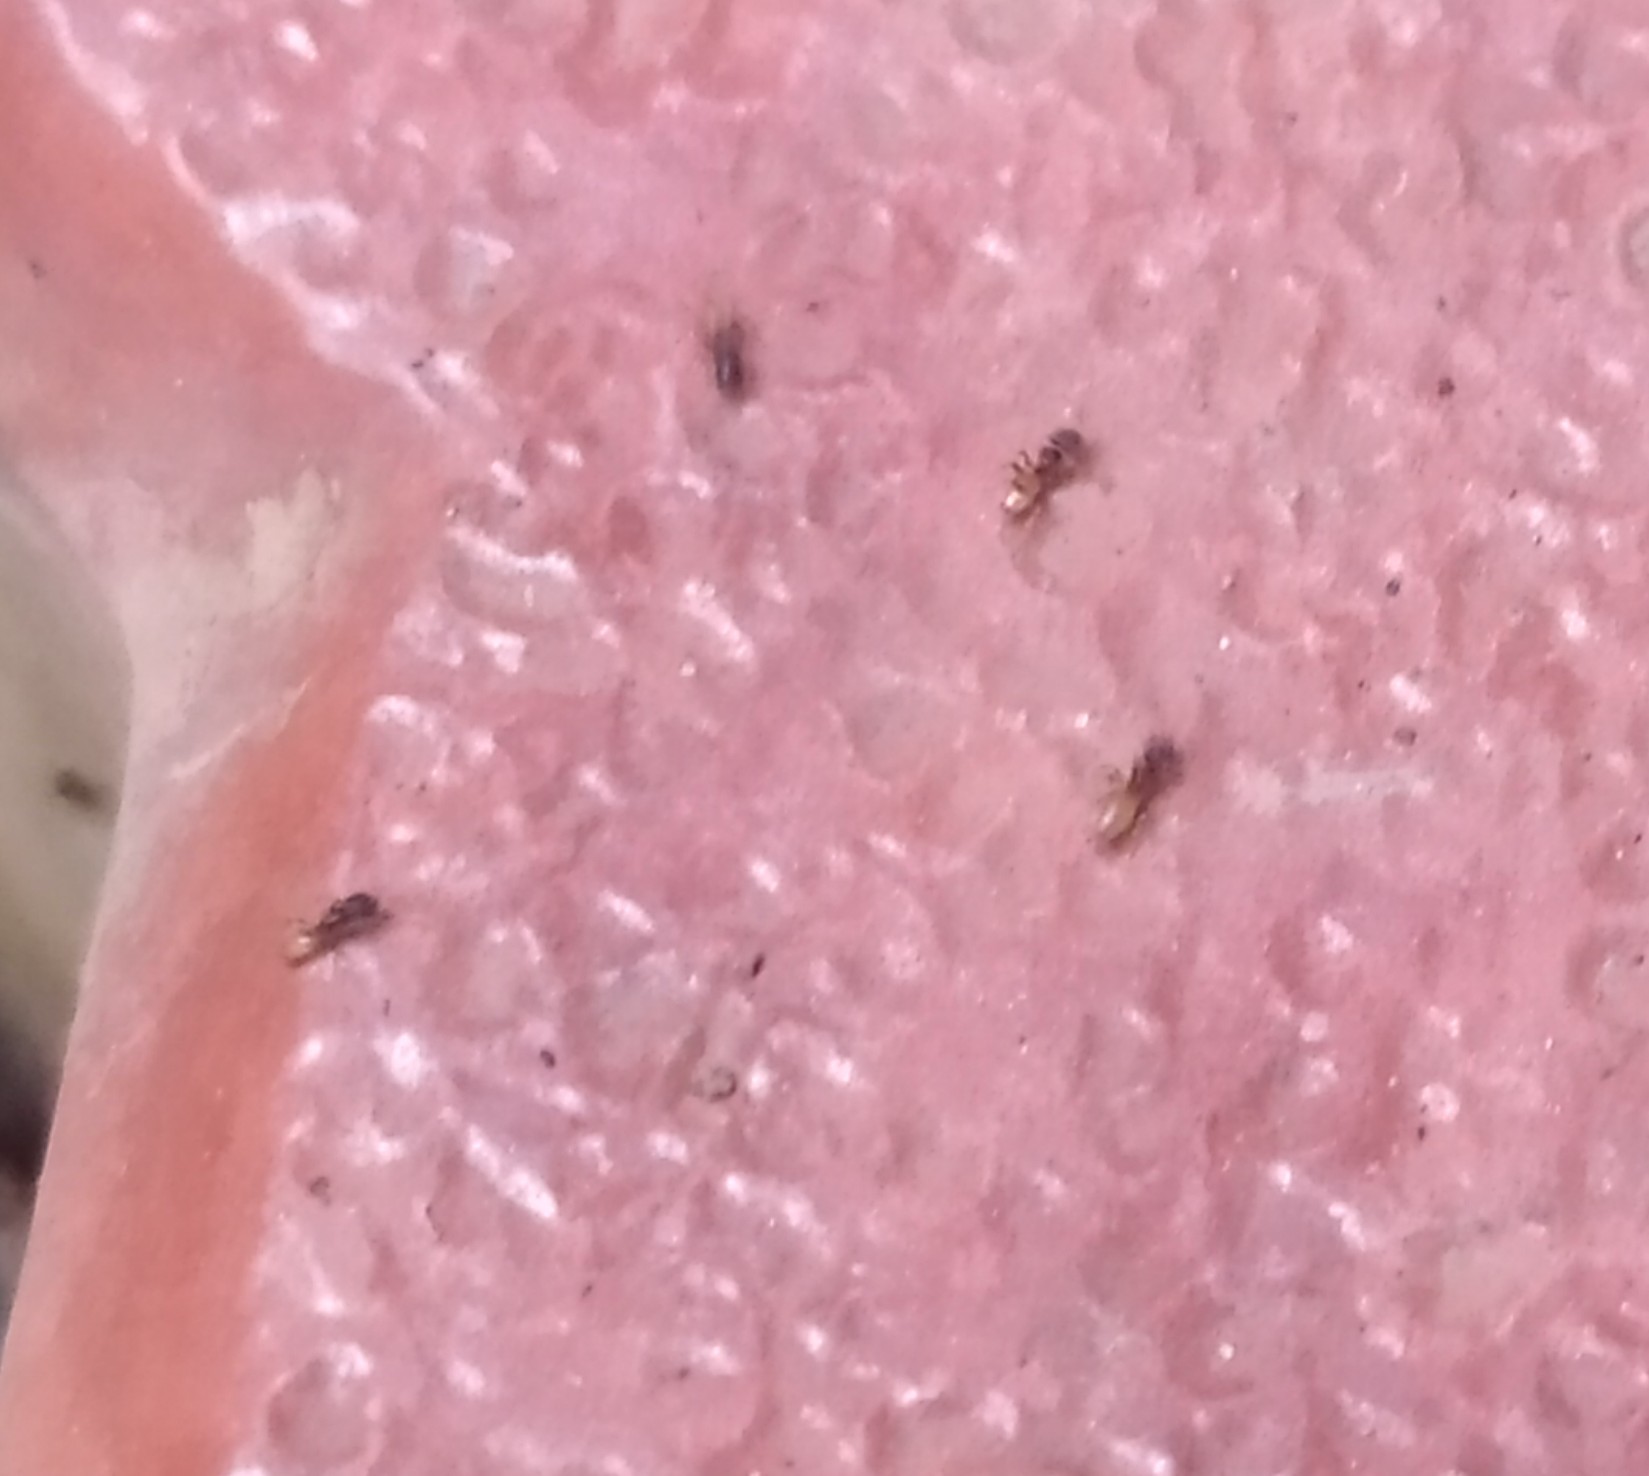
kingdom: Animalia
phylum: Arthropoda
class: Insecta
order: Hymenoptera
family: Formicidae
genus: Tapinoma
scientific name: Tapinoma melanocephalum
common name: Ghost ant
